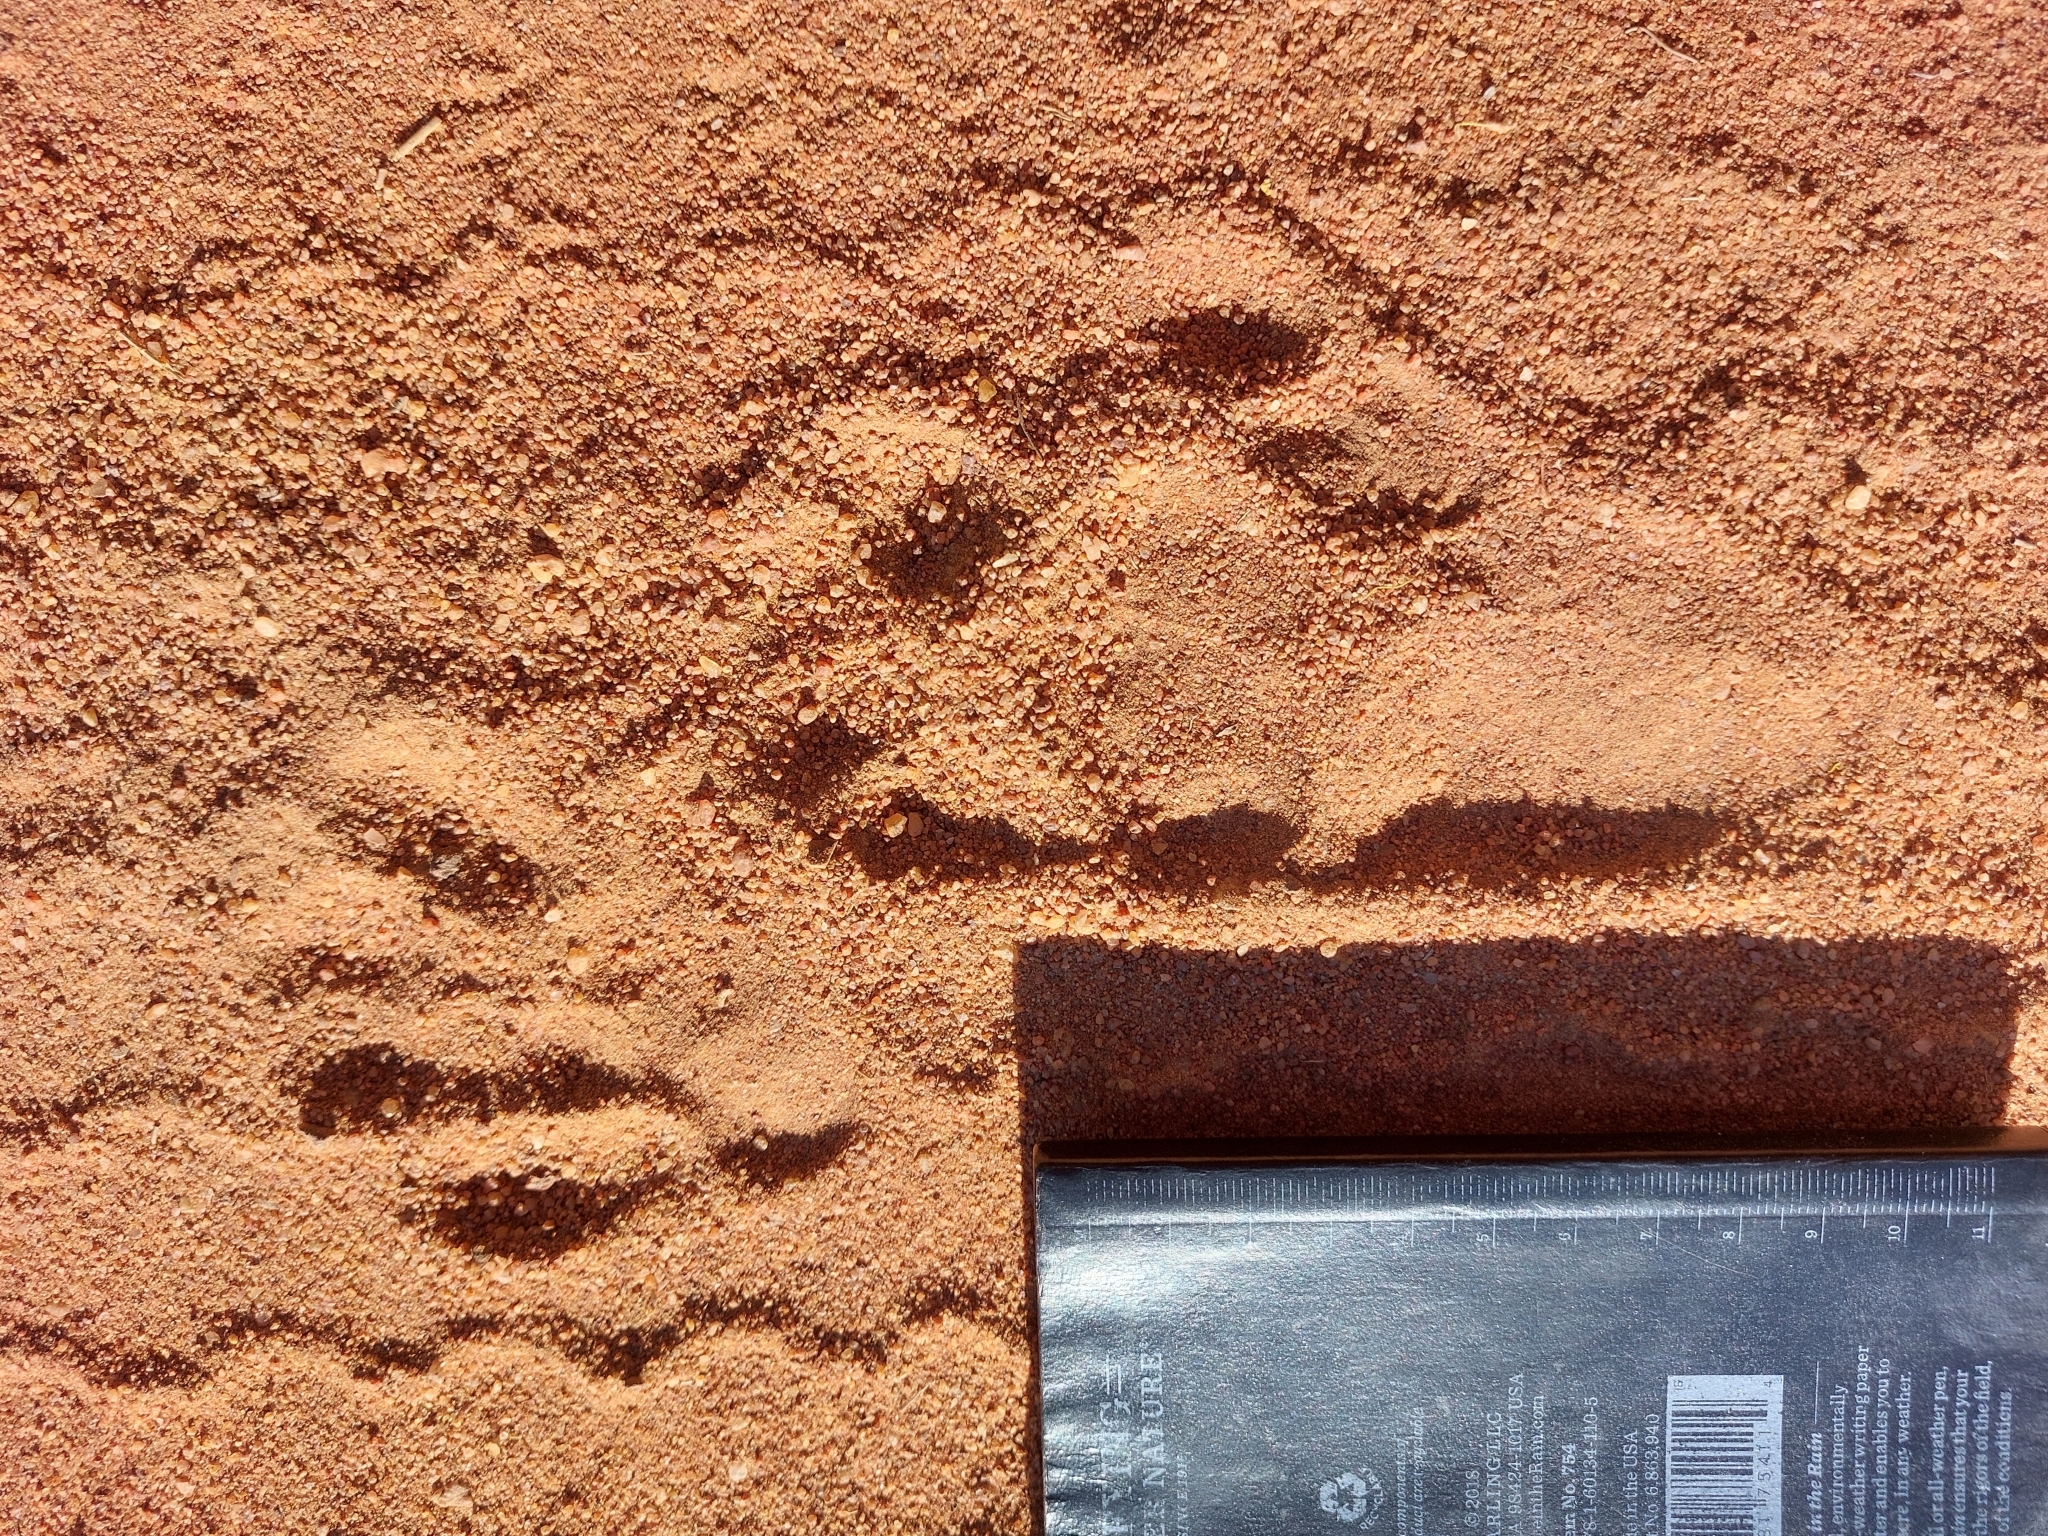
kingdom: Animalia
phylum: Chordata
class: Mammalia
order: Primates
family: Cercopithecidae
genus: Papio
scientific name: Papio ursinus
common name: Chacma baboon
